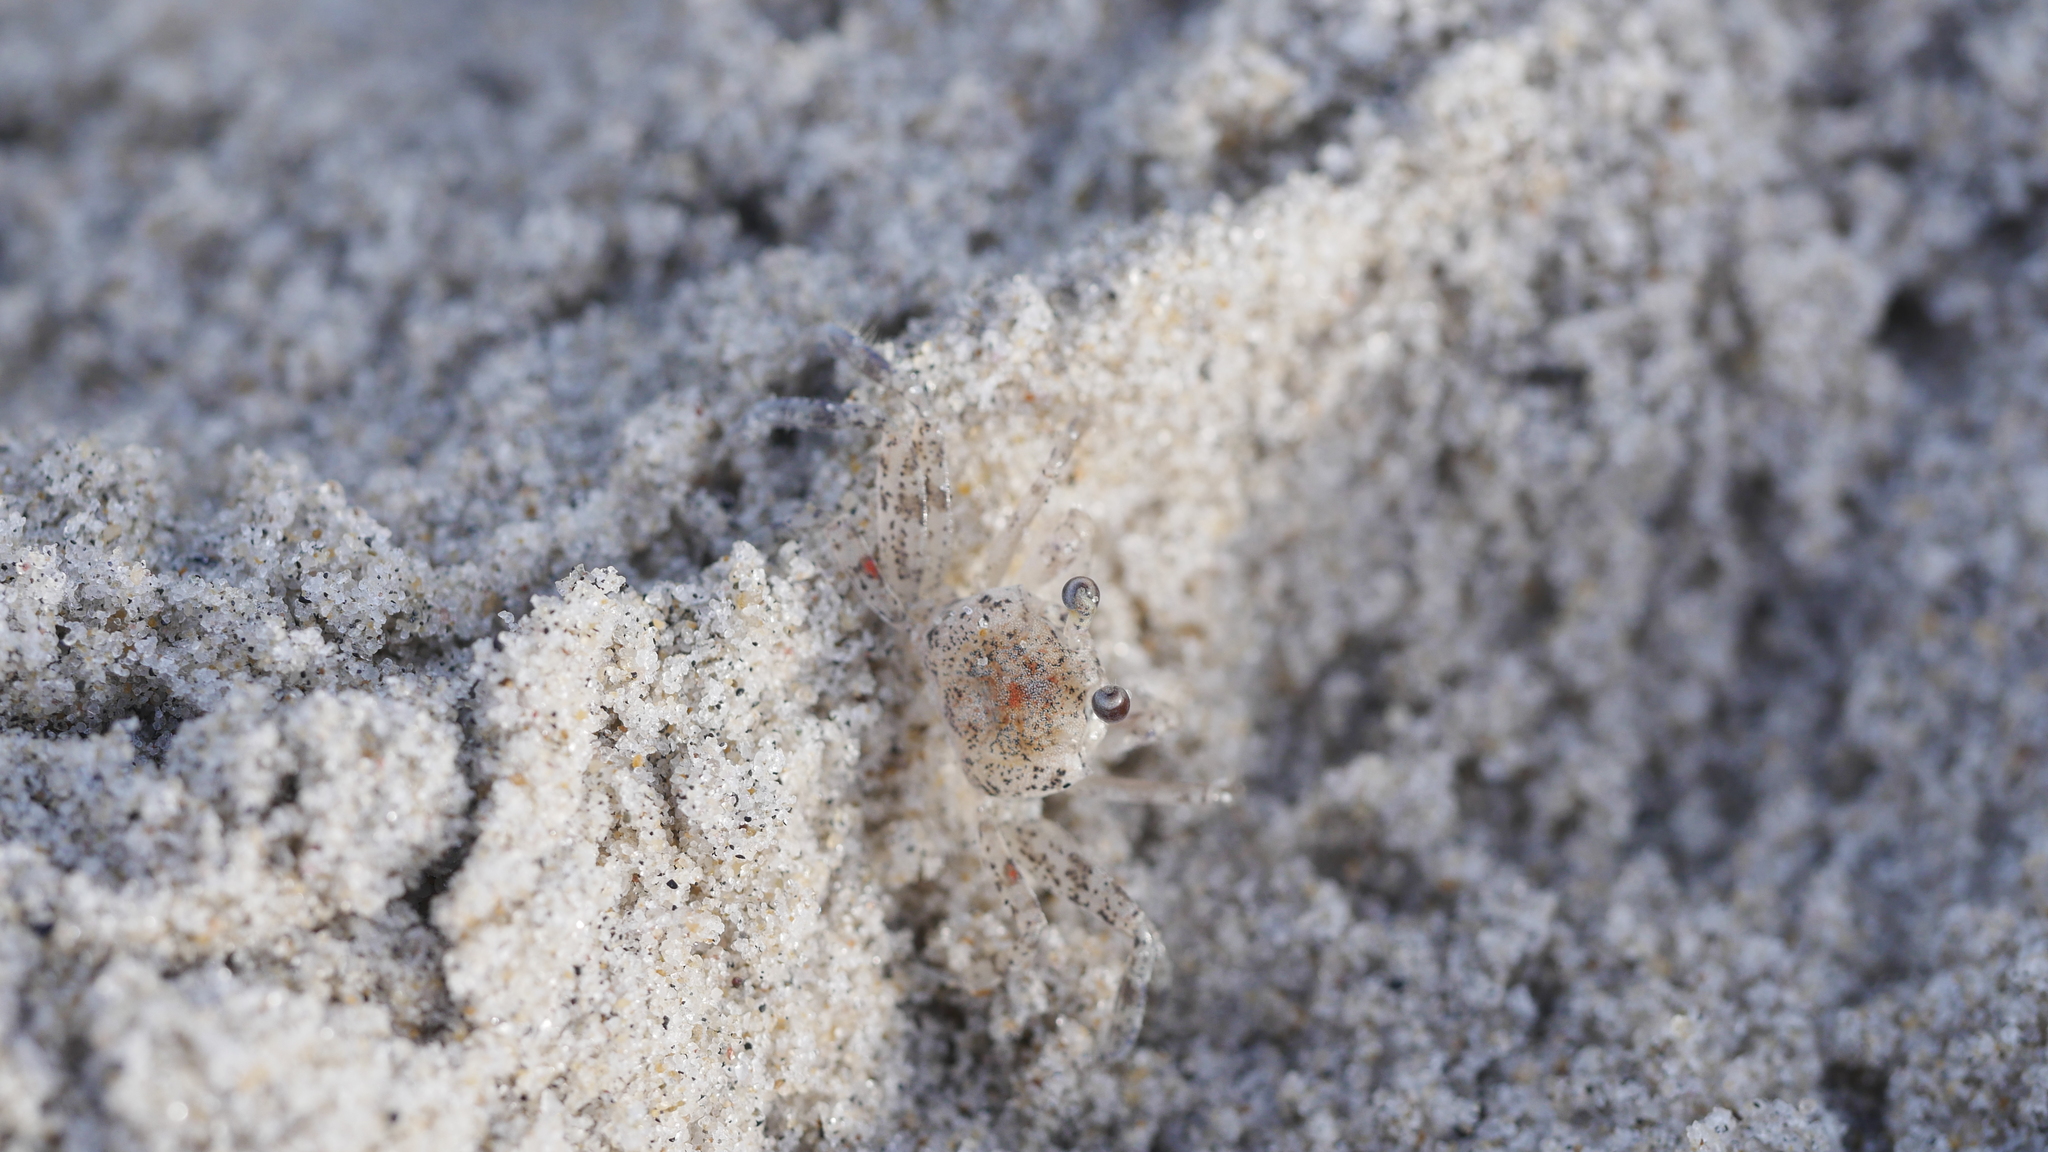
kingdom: Animalia
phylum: Arthropoda
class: Malacostraca
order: Decapoda
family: Ocypodidae
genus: Ocypode
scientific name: Ocypode quadrata
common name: Ghost crab
